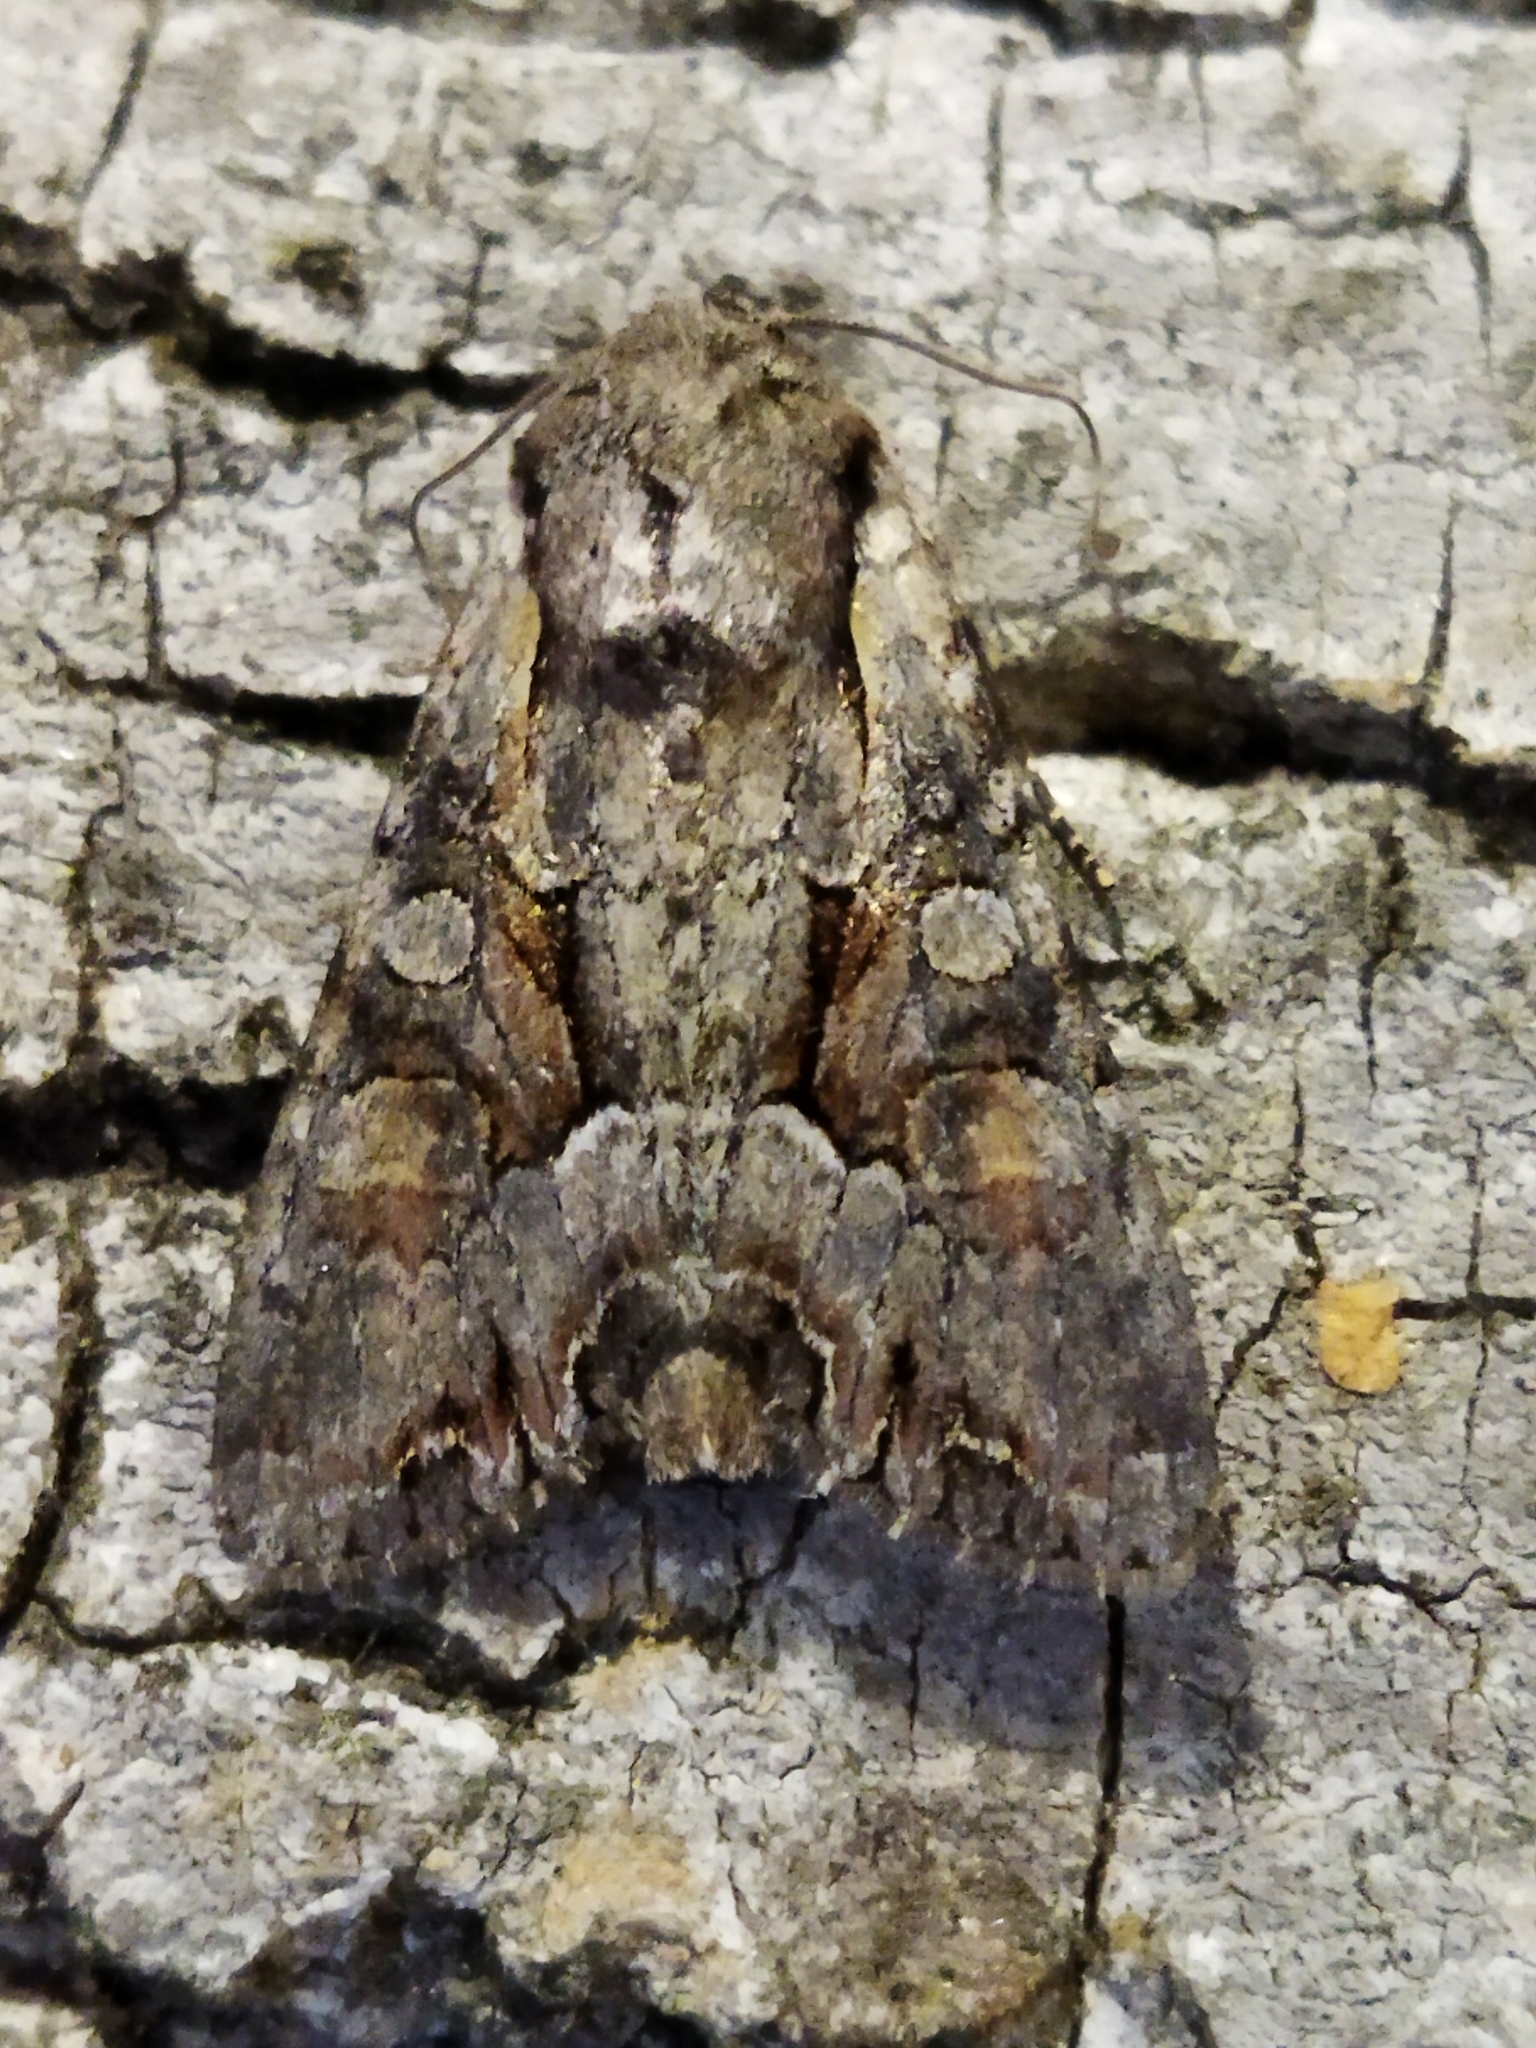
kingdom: Animalia
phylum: Arthropoda
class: Insecta
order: Lepidoptera
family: Noctuidae
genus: Lacanobia
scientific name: Lacanobia w-latinum
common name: Light brocade
